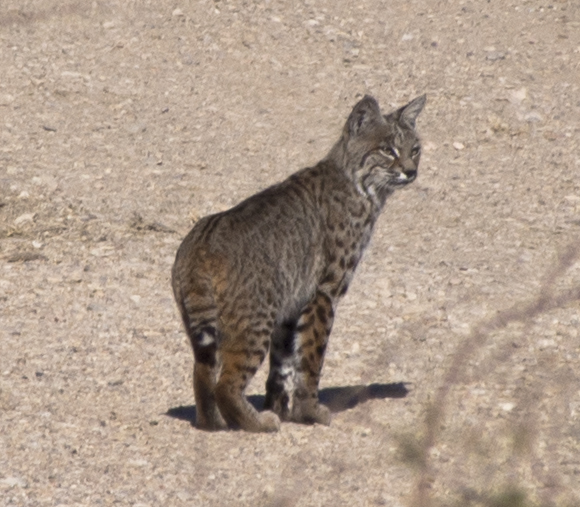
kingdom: Animalia
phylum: Chordata
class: Mammalia
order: Carnivora
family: Felidae
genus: Lynx
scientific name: Lynx rufus
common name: Bobcat
